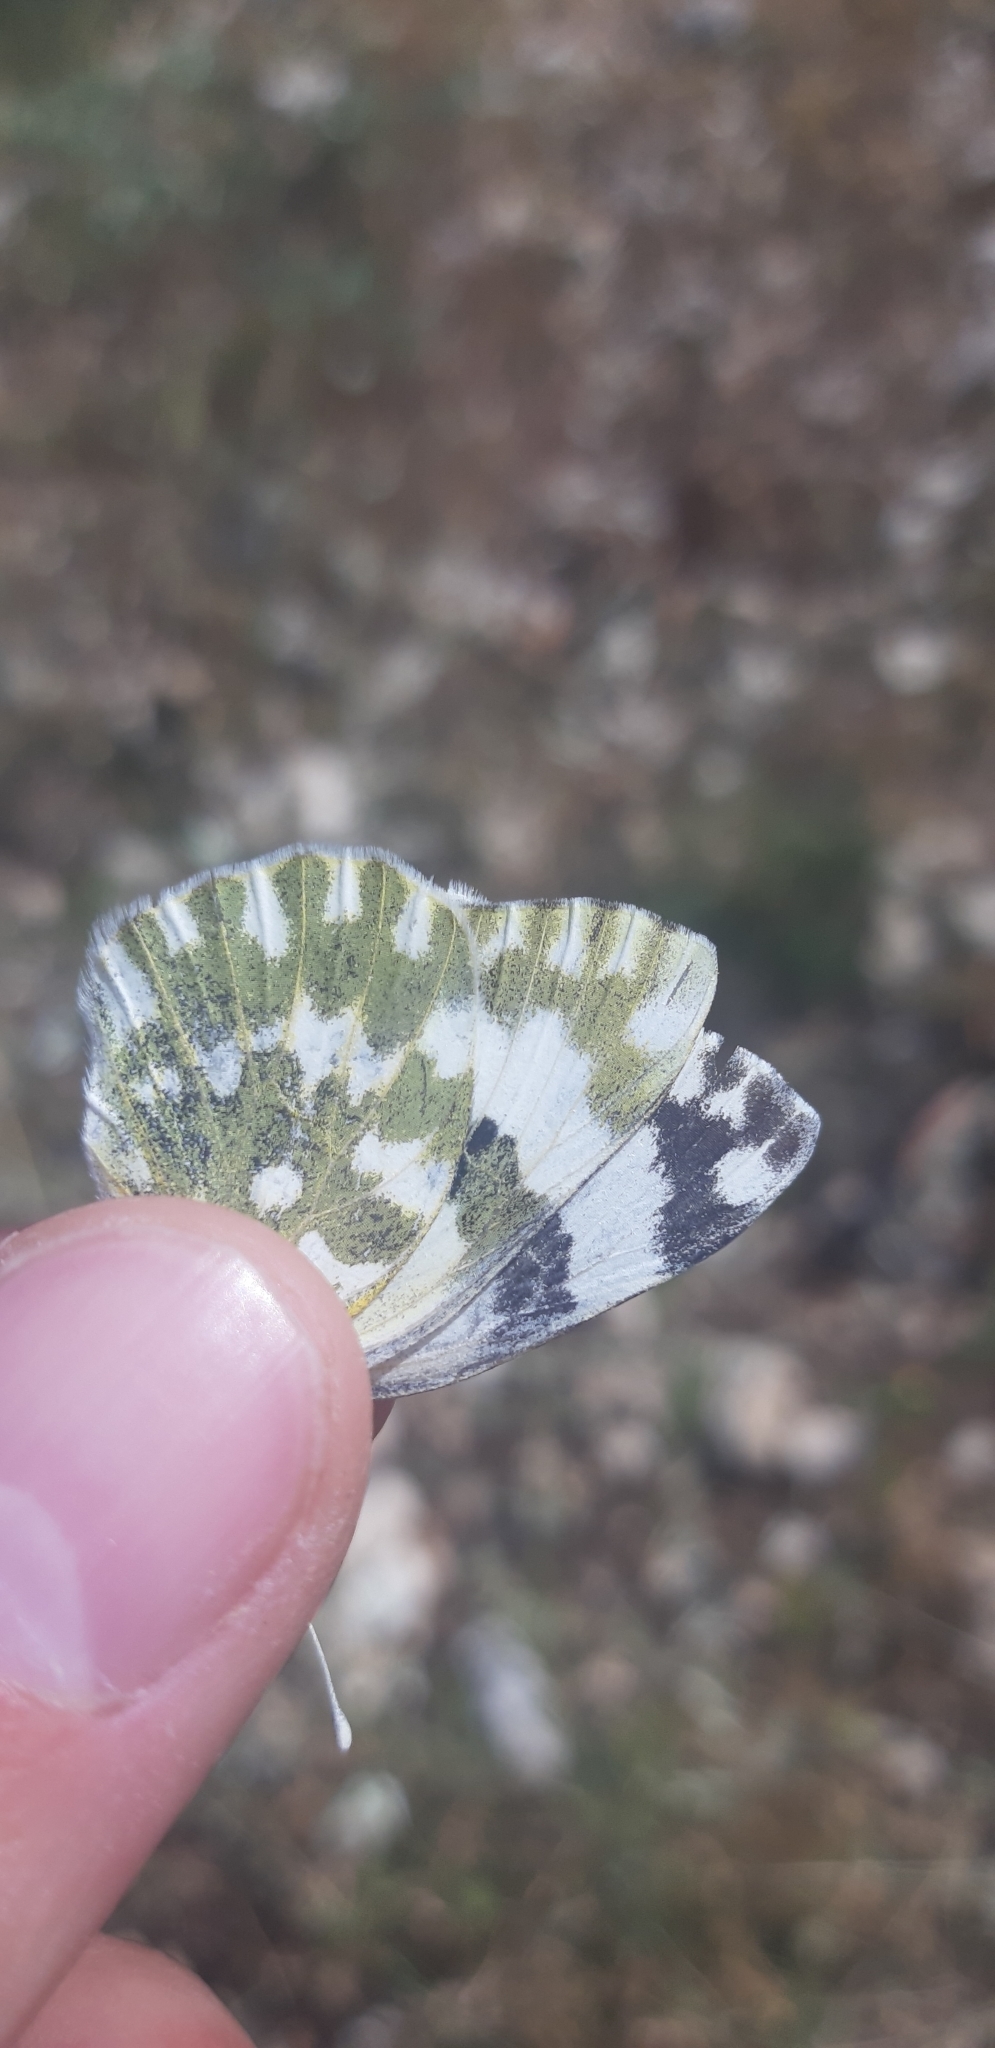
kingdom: Animalia
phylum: Arthropoda
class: Insecta
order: Lepidoptera
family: Pieridae
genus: Pontia
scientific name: Pontia edusa
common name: Eastern bath white
